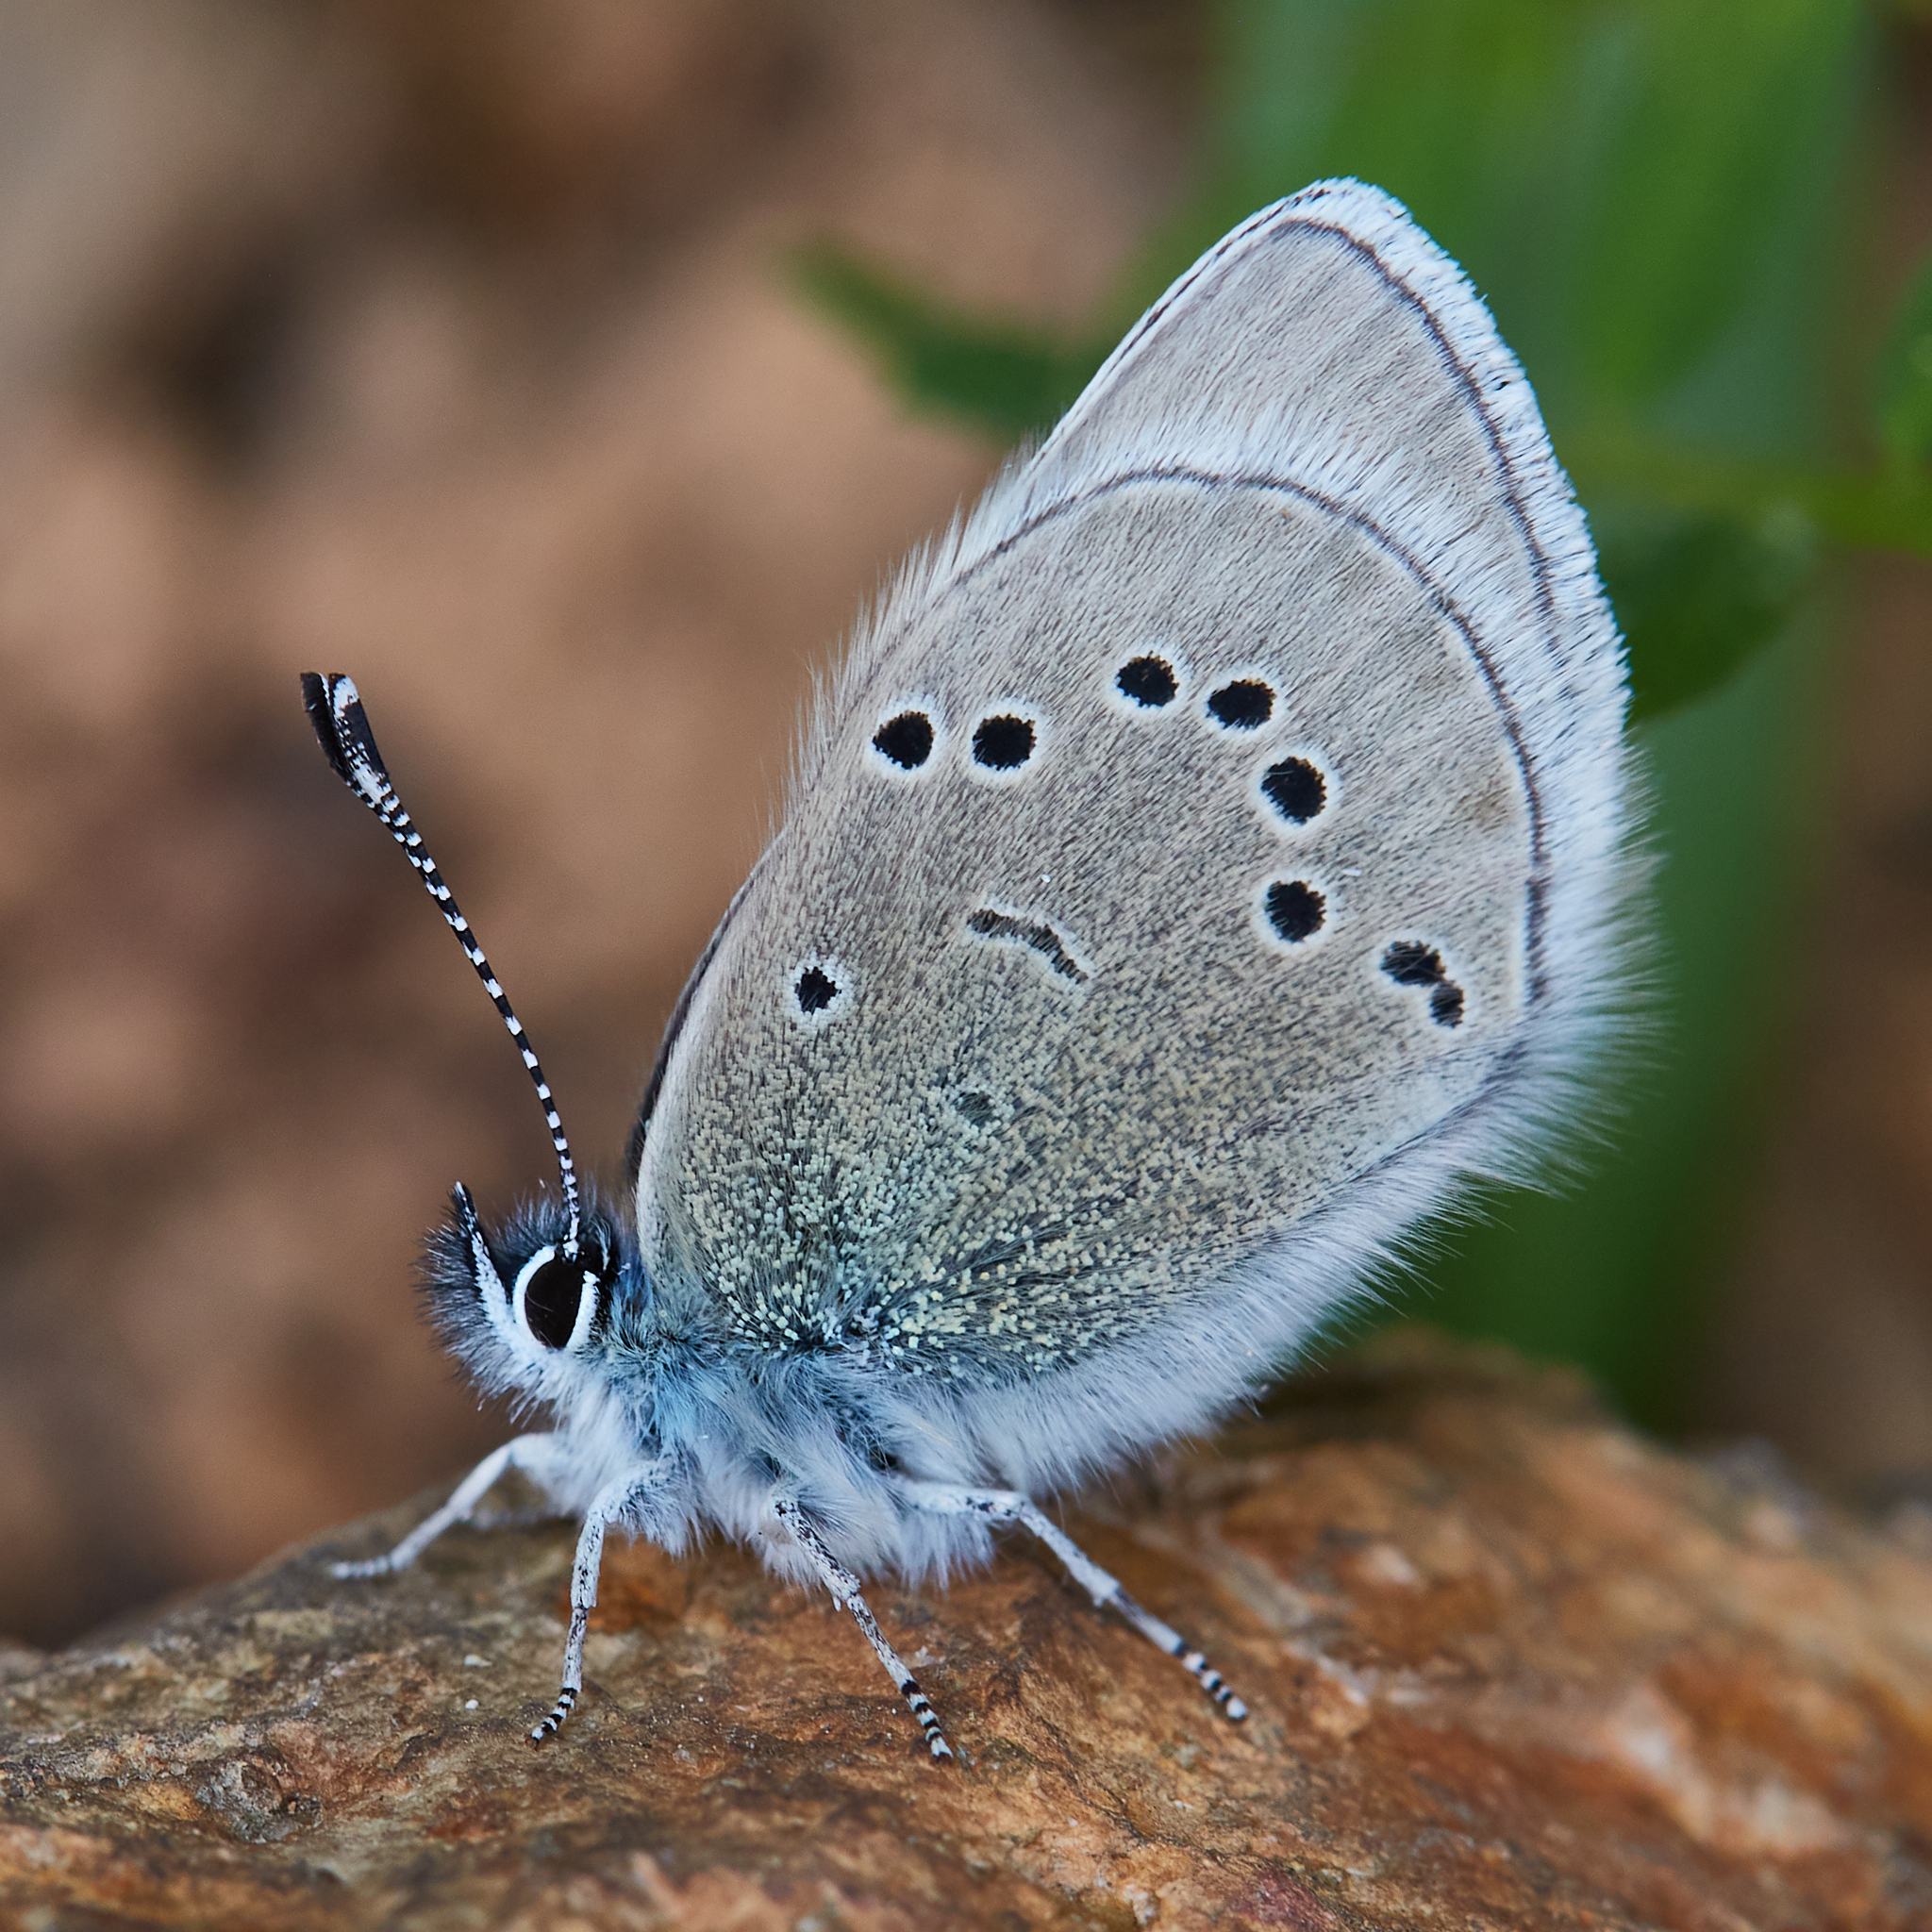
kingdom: Animalia
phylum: Arthropoda
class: Insecta
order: Lepidoptera
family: Lycaenidae
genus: Glaucopsyche
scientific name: Glaucopsyche lygdamus
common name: Silvery blue
